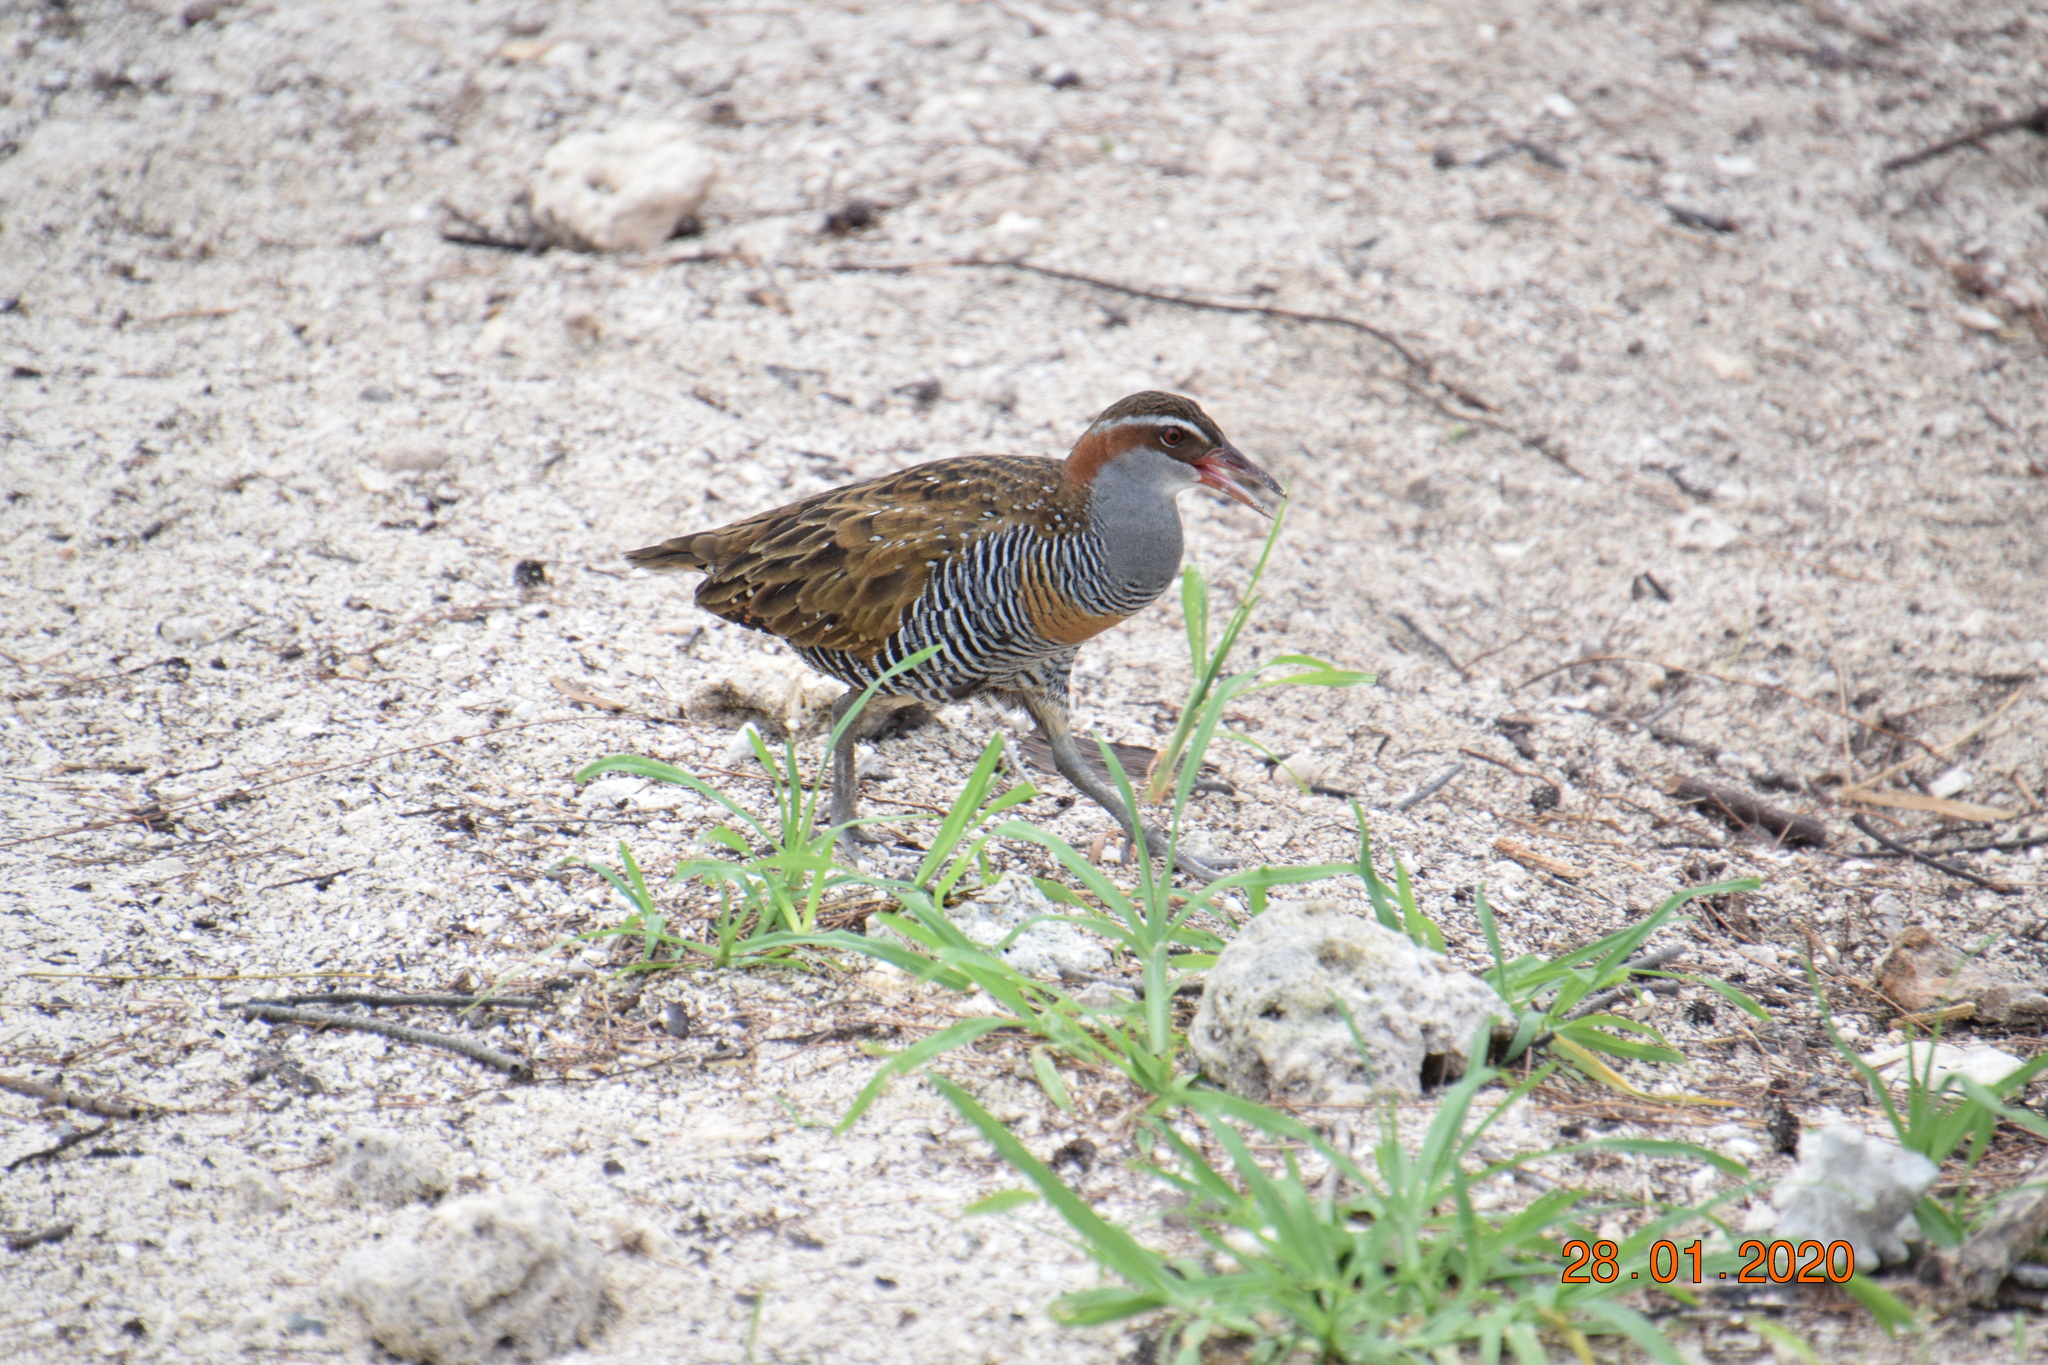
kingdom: Animalia
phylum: Chordata
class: Aves
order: Gruiformes
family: Rallidae
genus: Gallirallus
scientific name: Gallirallus philippensis
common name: Buff-banded rail
